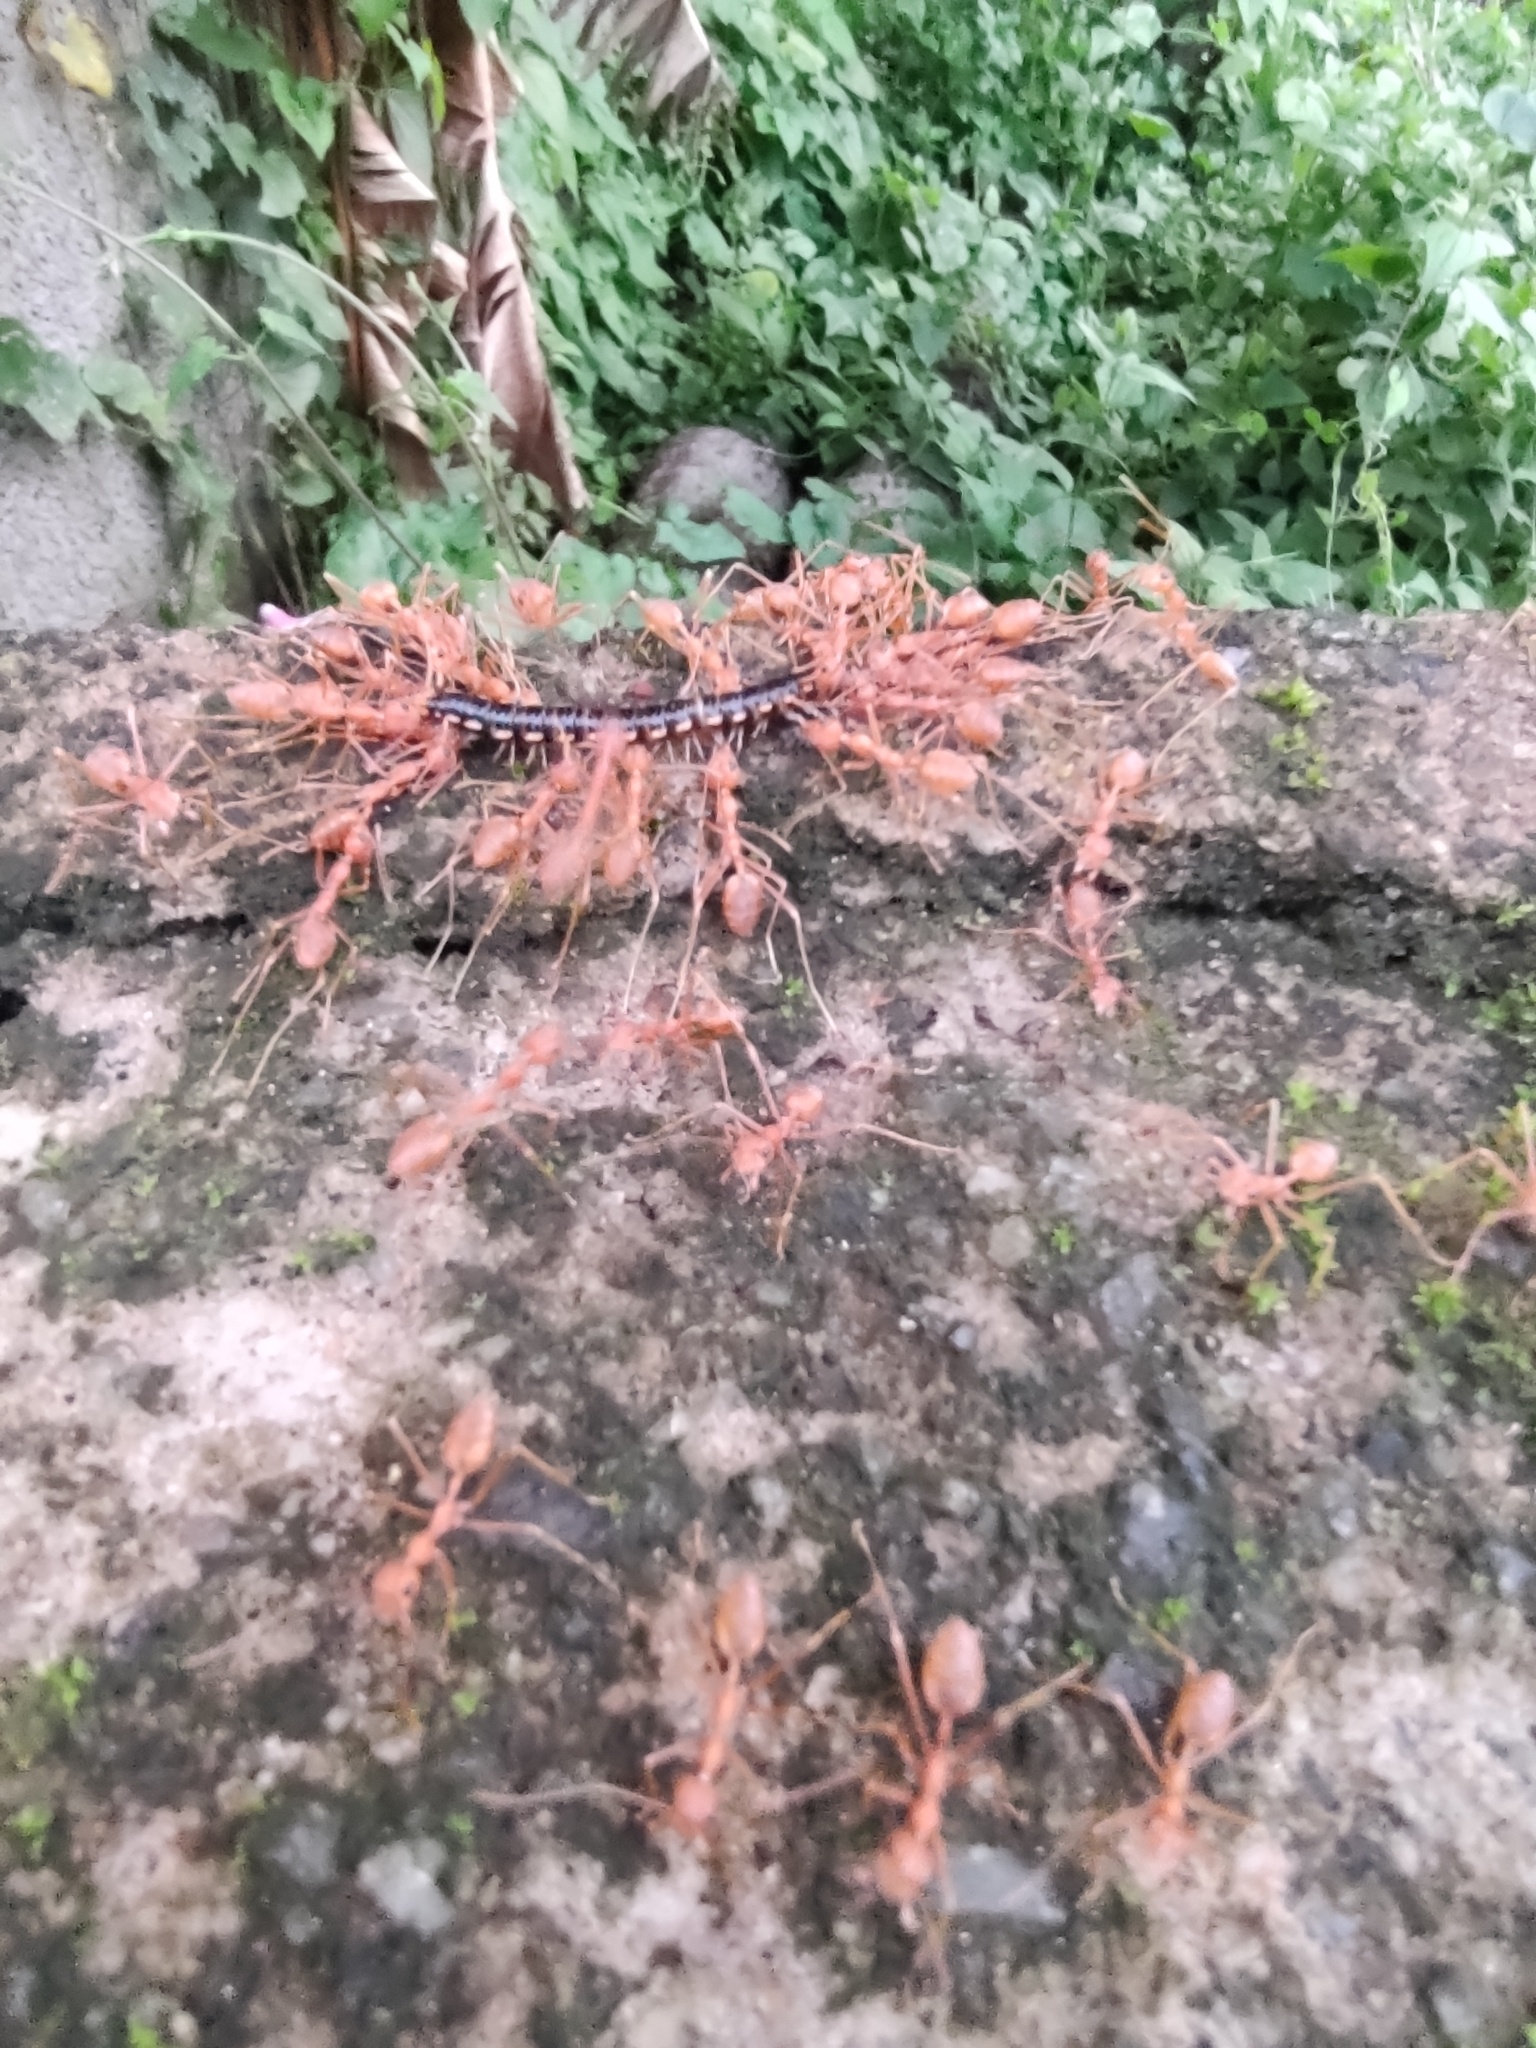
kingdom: Animalia
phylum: Arthropoda
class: Insecta
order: Hymenoptera
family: Formicidae
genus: Oecophylla
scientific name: Oecophylla smaragdina
